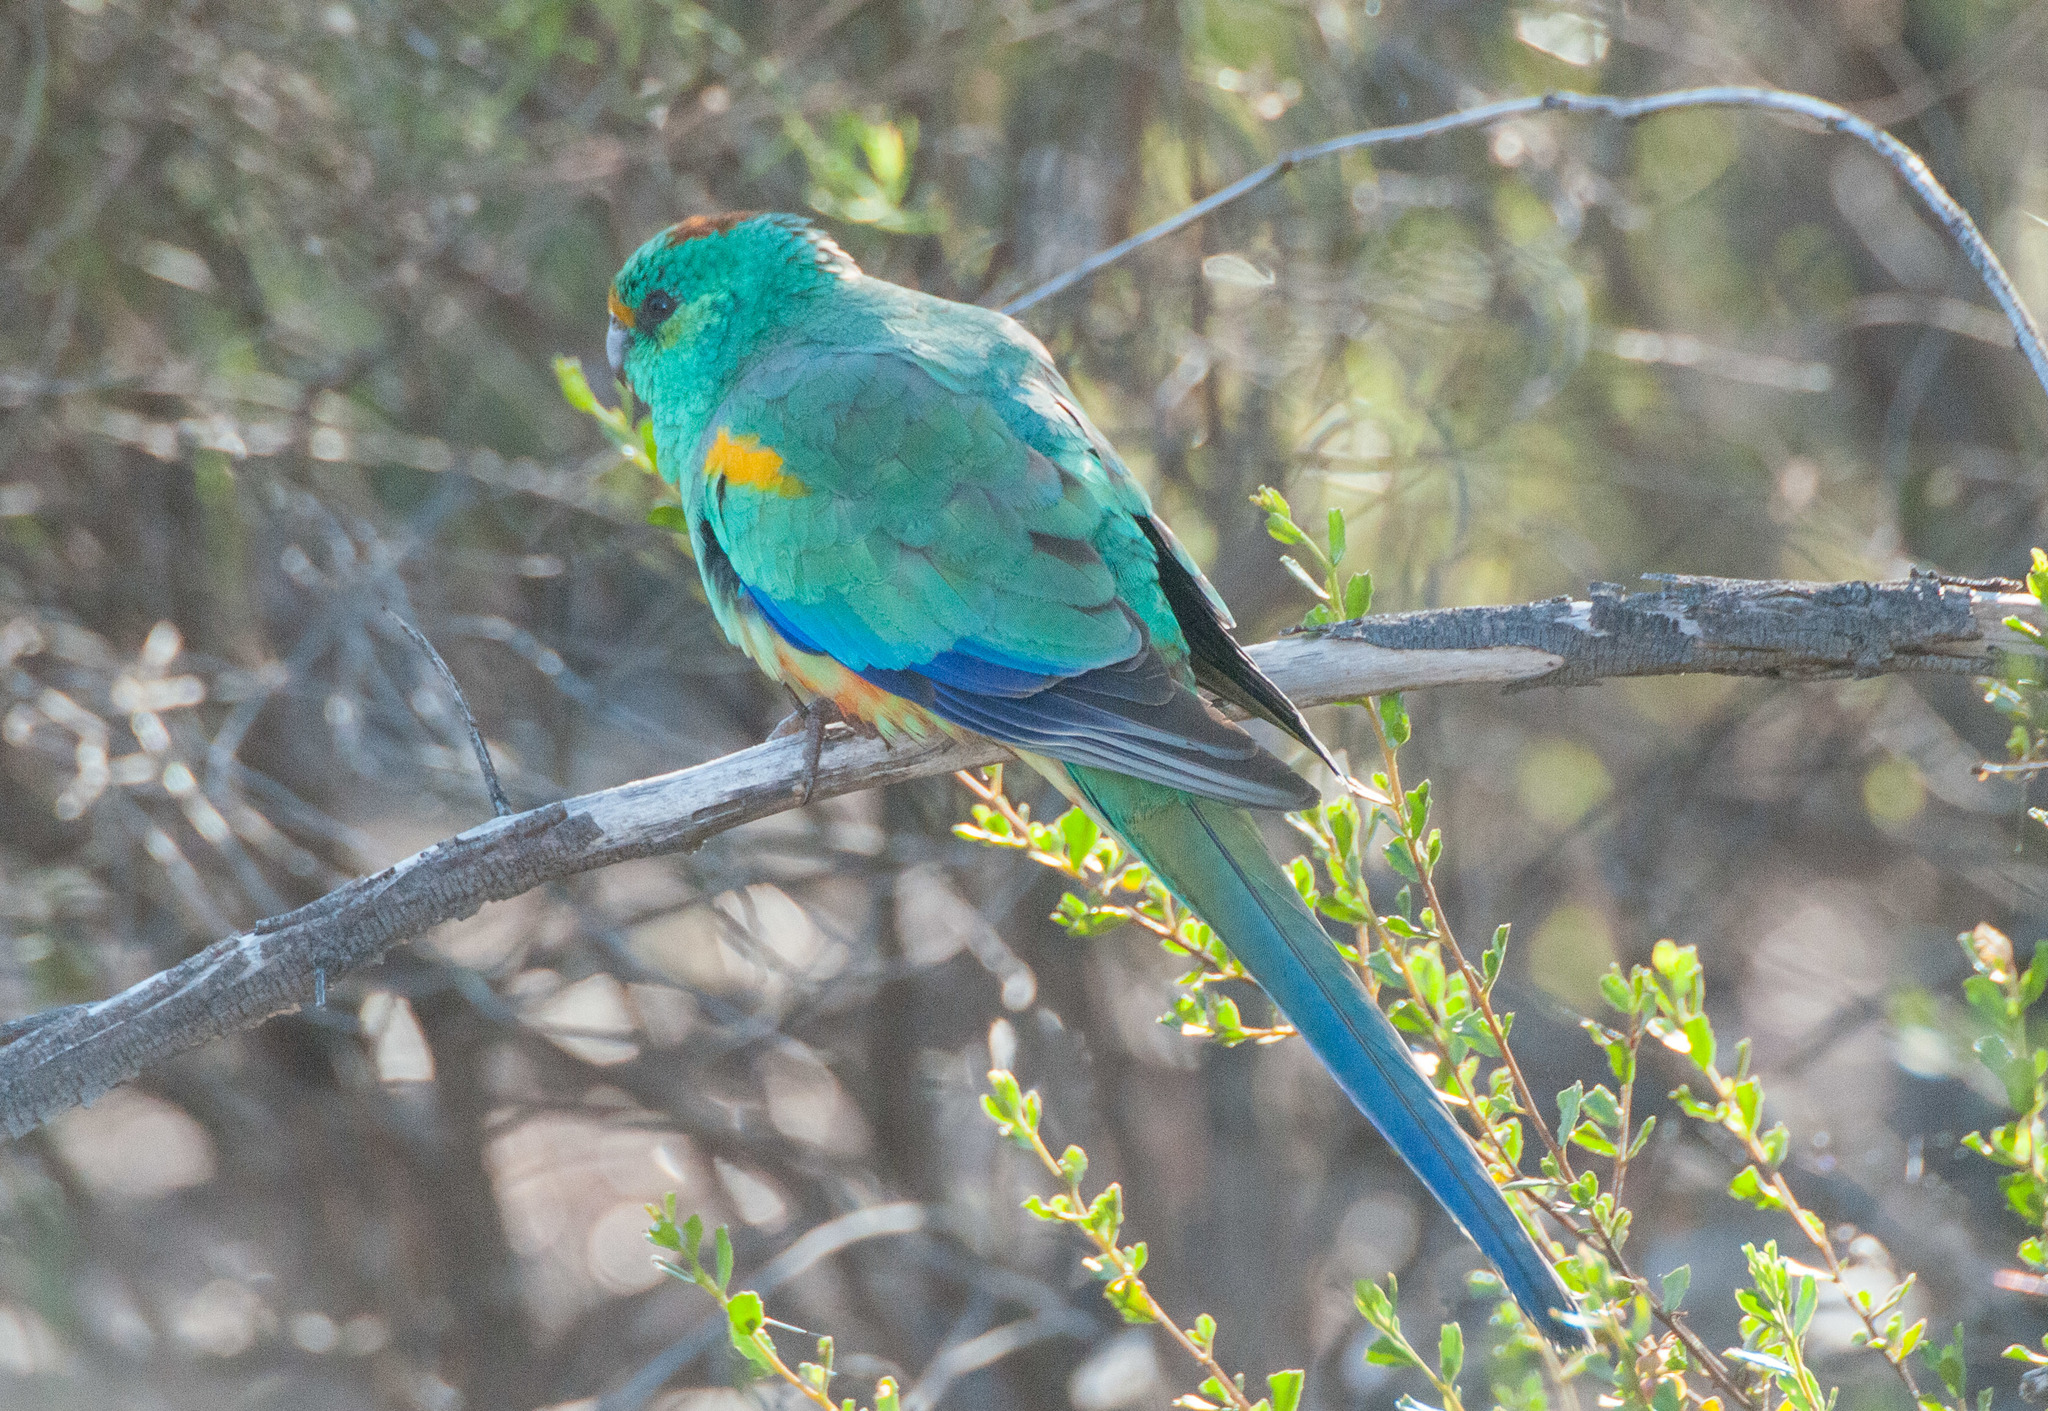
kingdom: Animalia
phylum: Chordata
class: Aves
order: Psittaciformes
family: Psittaculidae
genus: Psephotellus
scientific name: Psephotellus varius
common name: Mulga parrot
